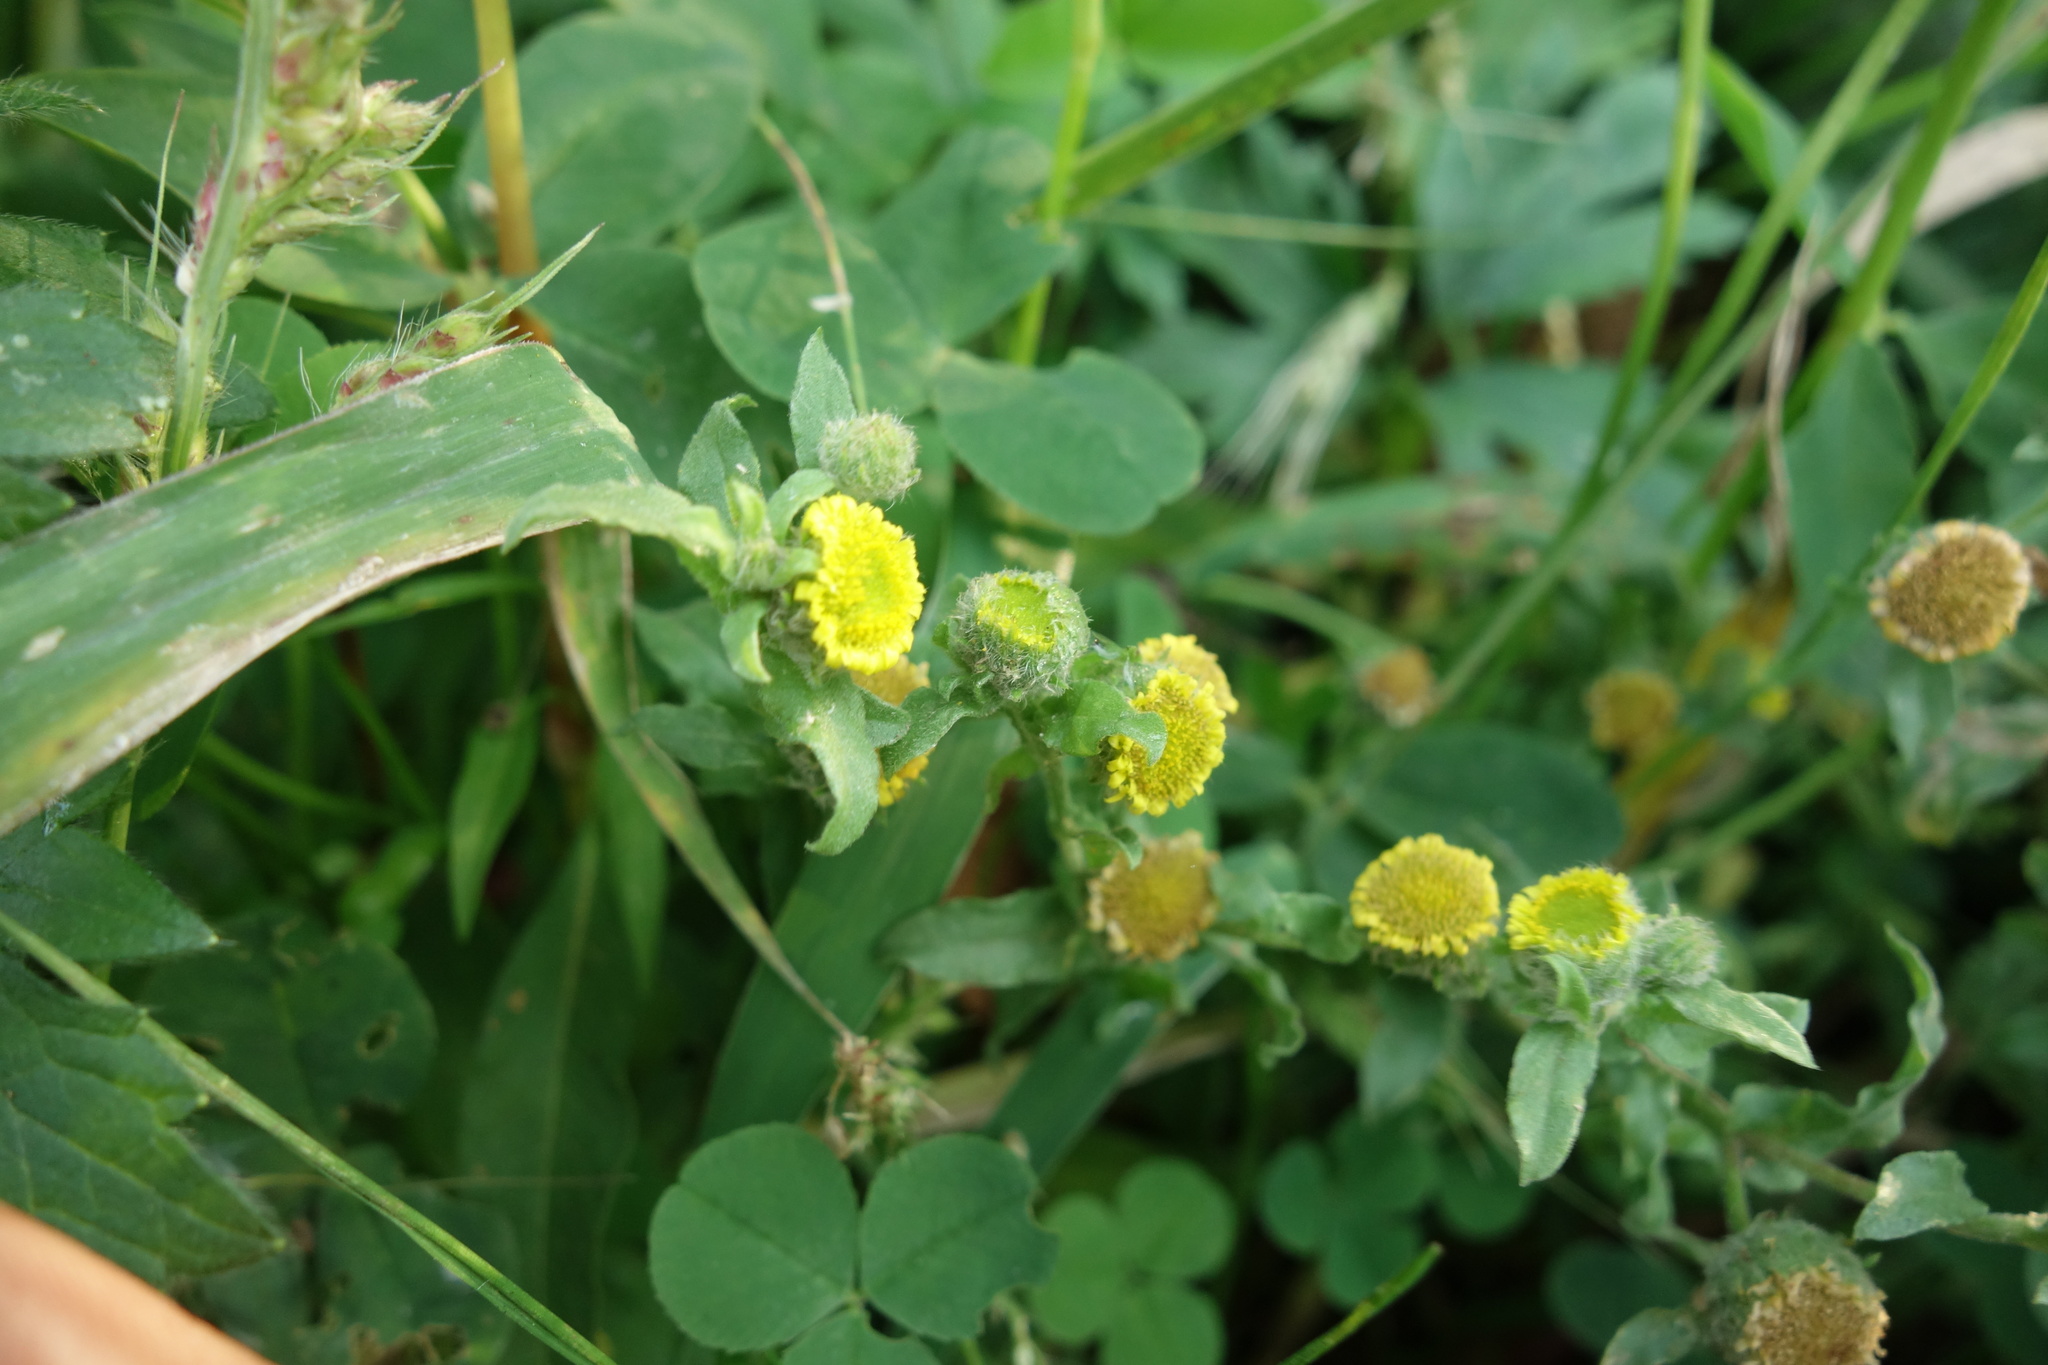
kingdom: Plantae
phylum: Tracheophyta
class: Magnoliopsida
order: Asterales
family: Asteraceae
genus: Pulicaria
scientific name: Pulicaria vulgaris
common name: Small fleabane
